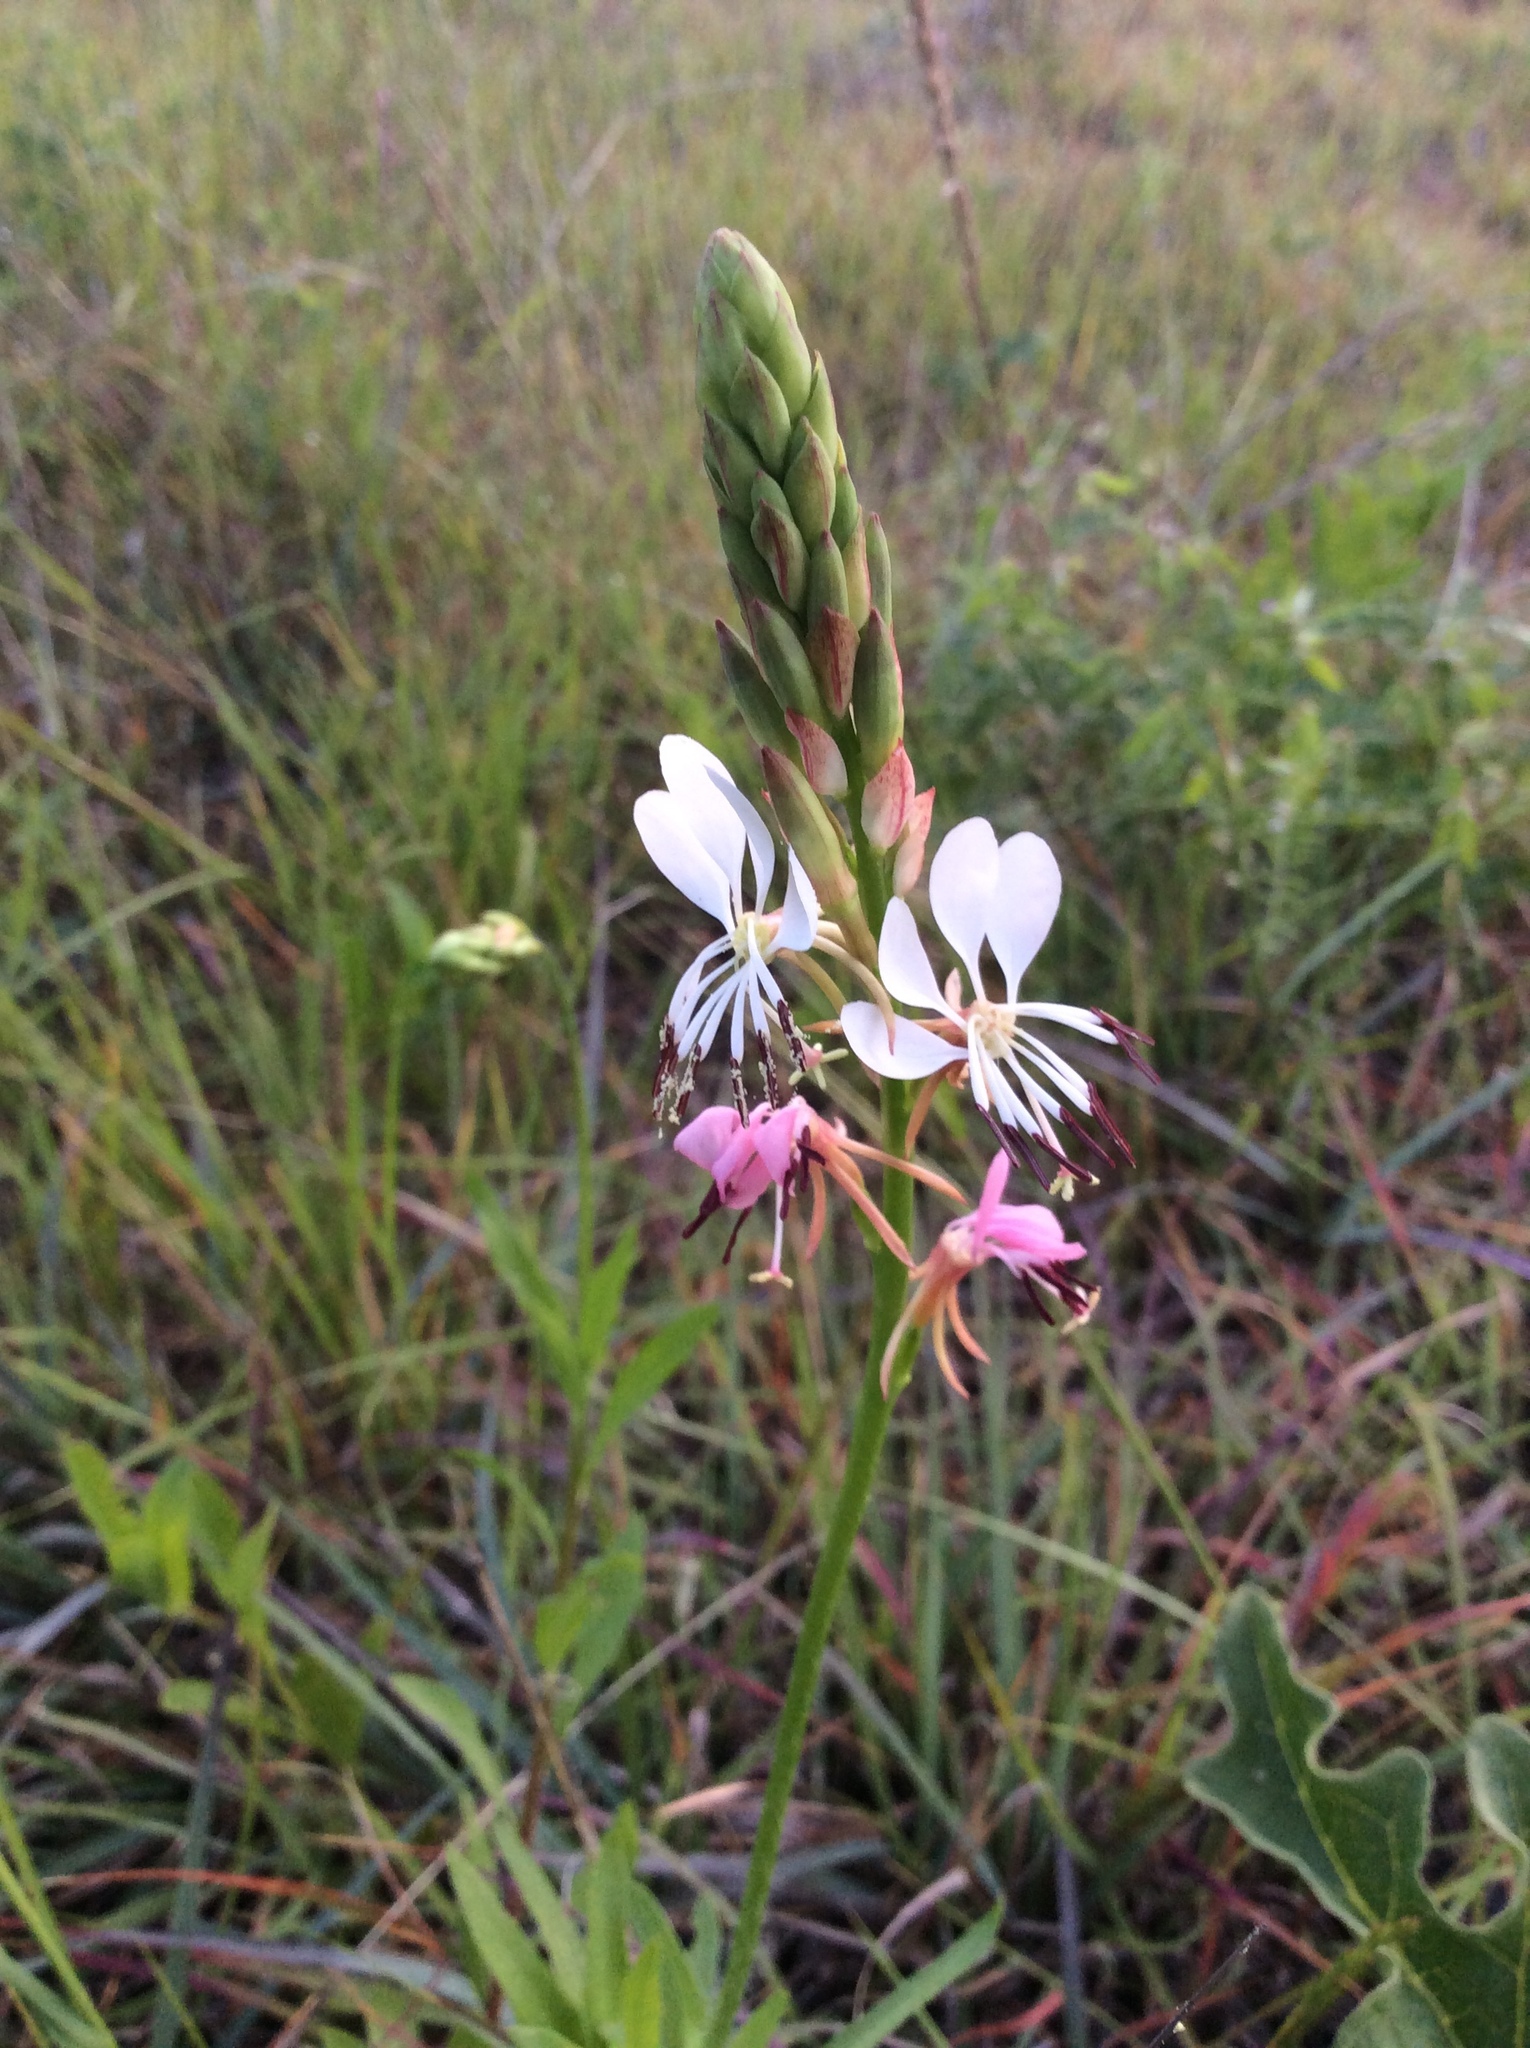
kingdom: Plantae
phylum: Tracheophyta
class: Magnoliopsida
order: Myrtales
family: Onagraceae
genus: Oenothera
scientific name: Oenothera suffulta
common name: Kisses
